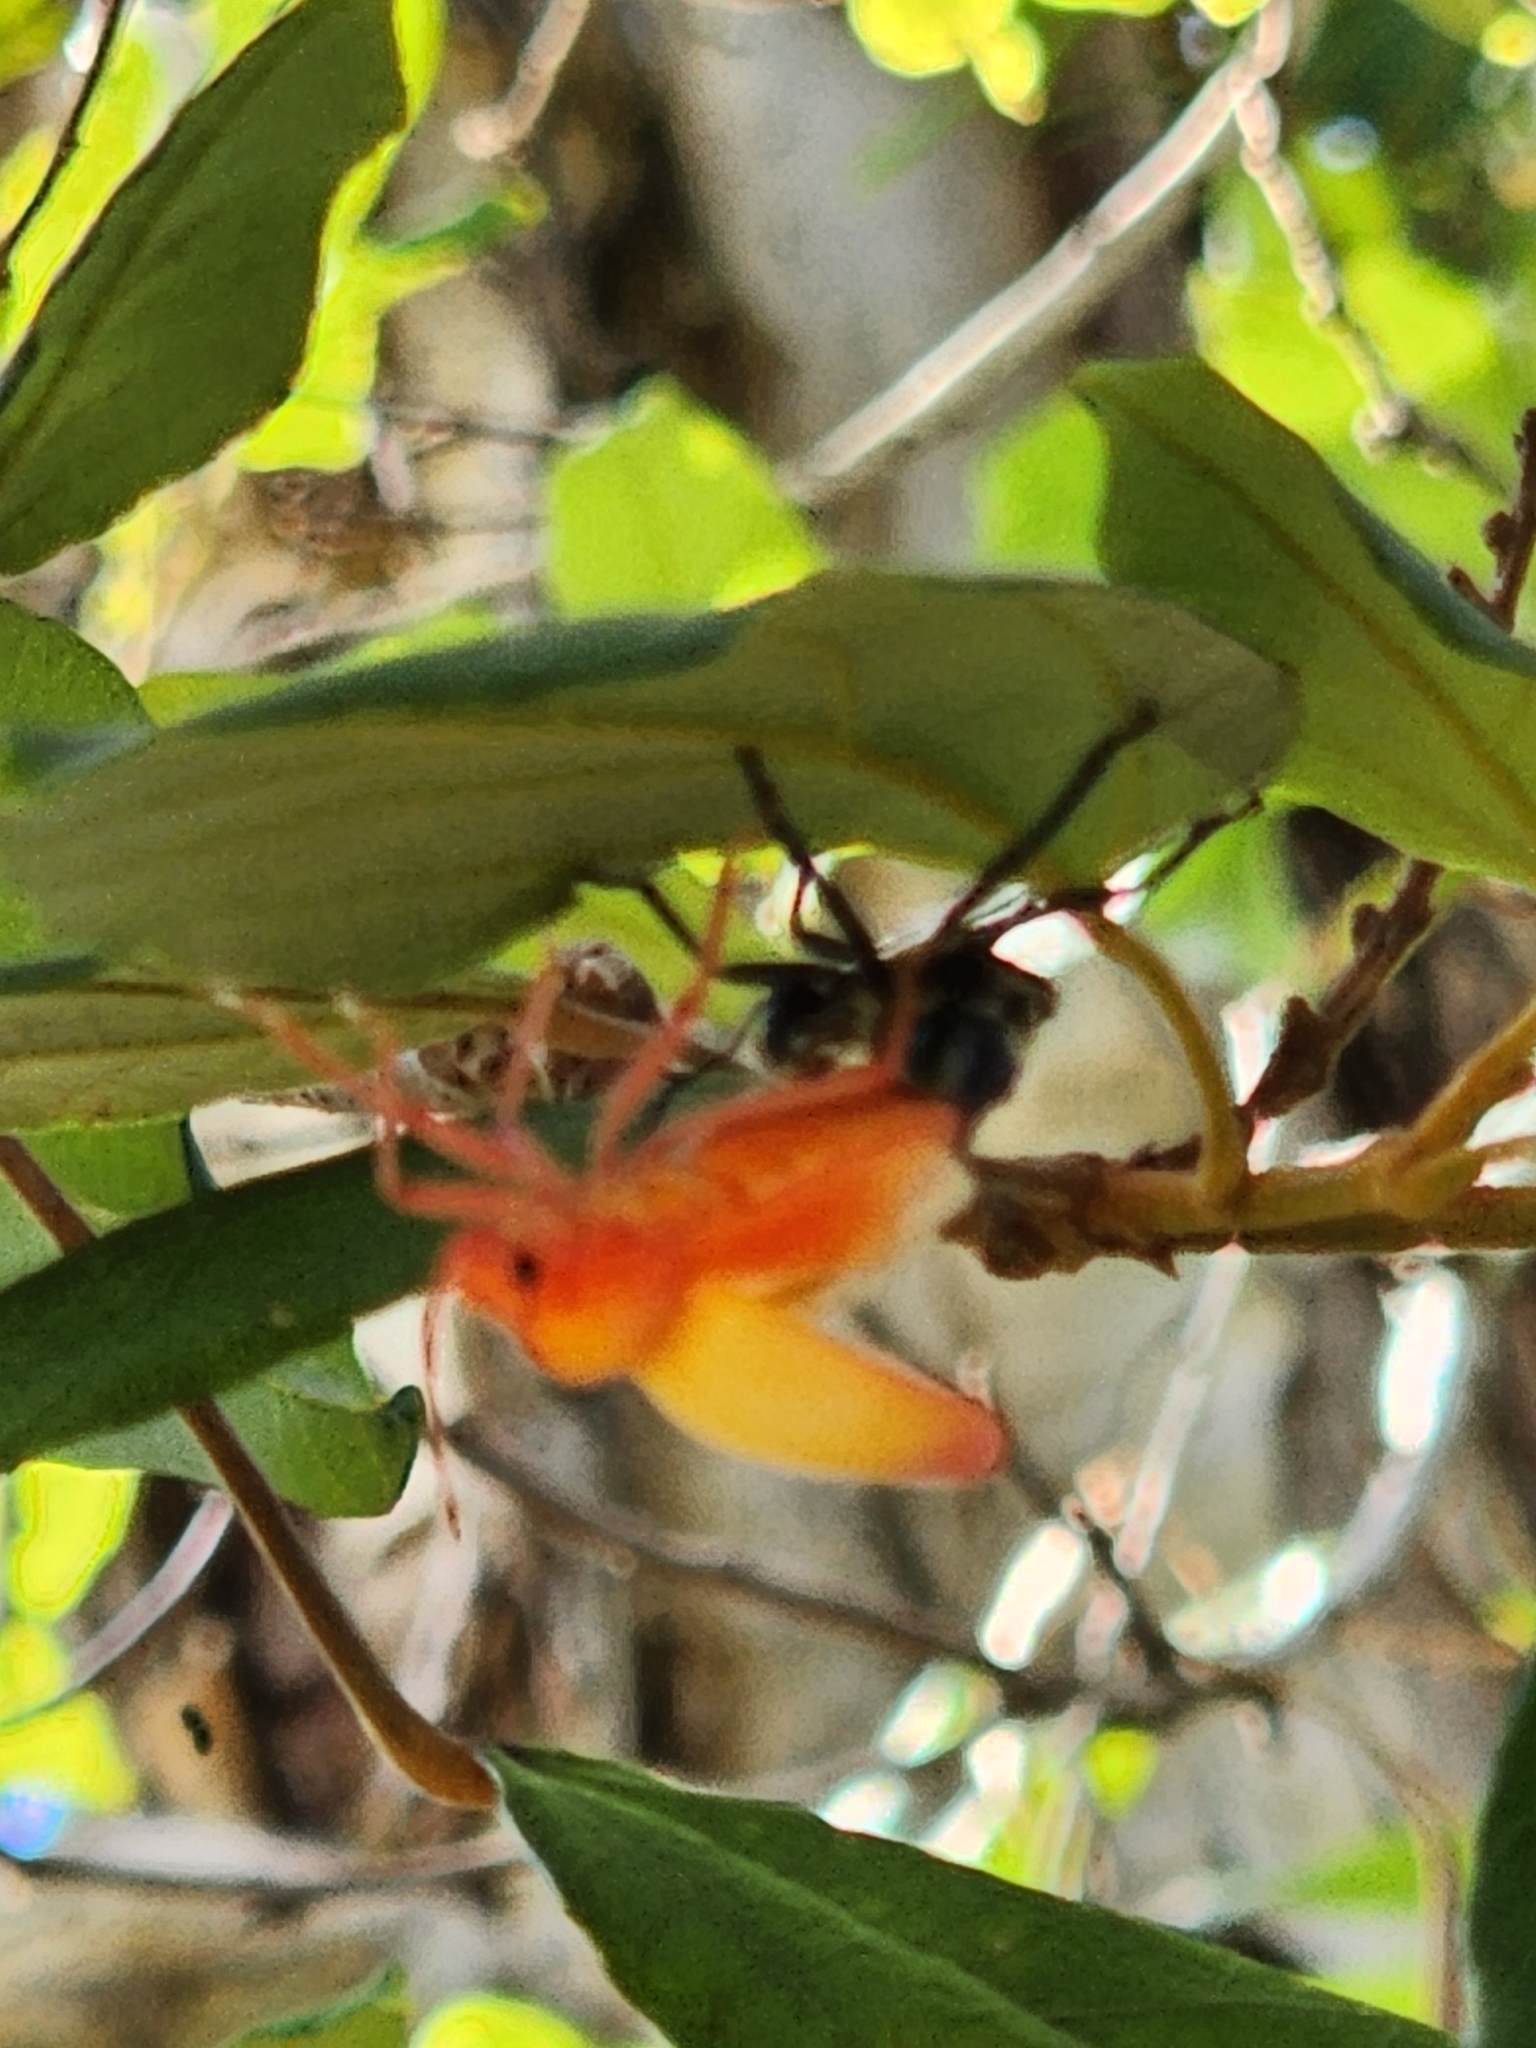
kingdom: Animalia
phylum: Arthropoda
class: Insecta
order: Hemiptera
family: Scutelleridae
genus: Cantao
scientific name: Cantao
